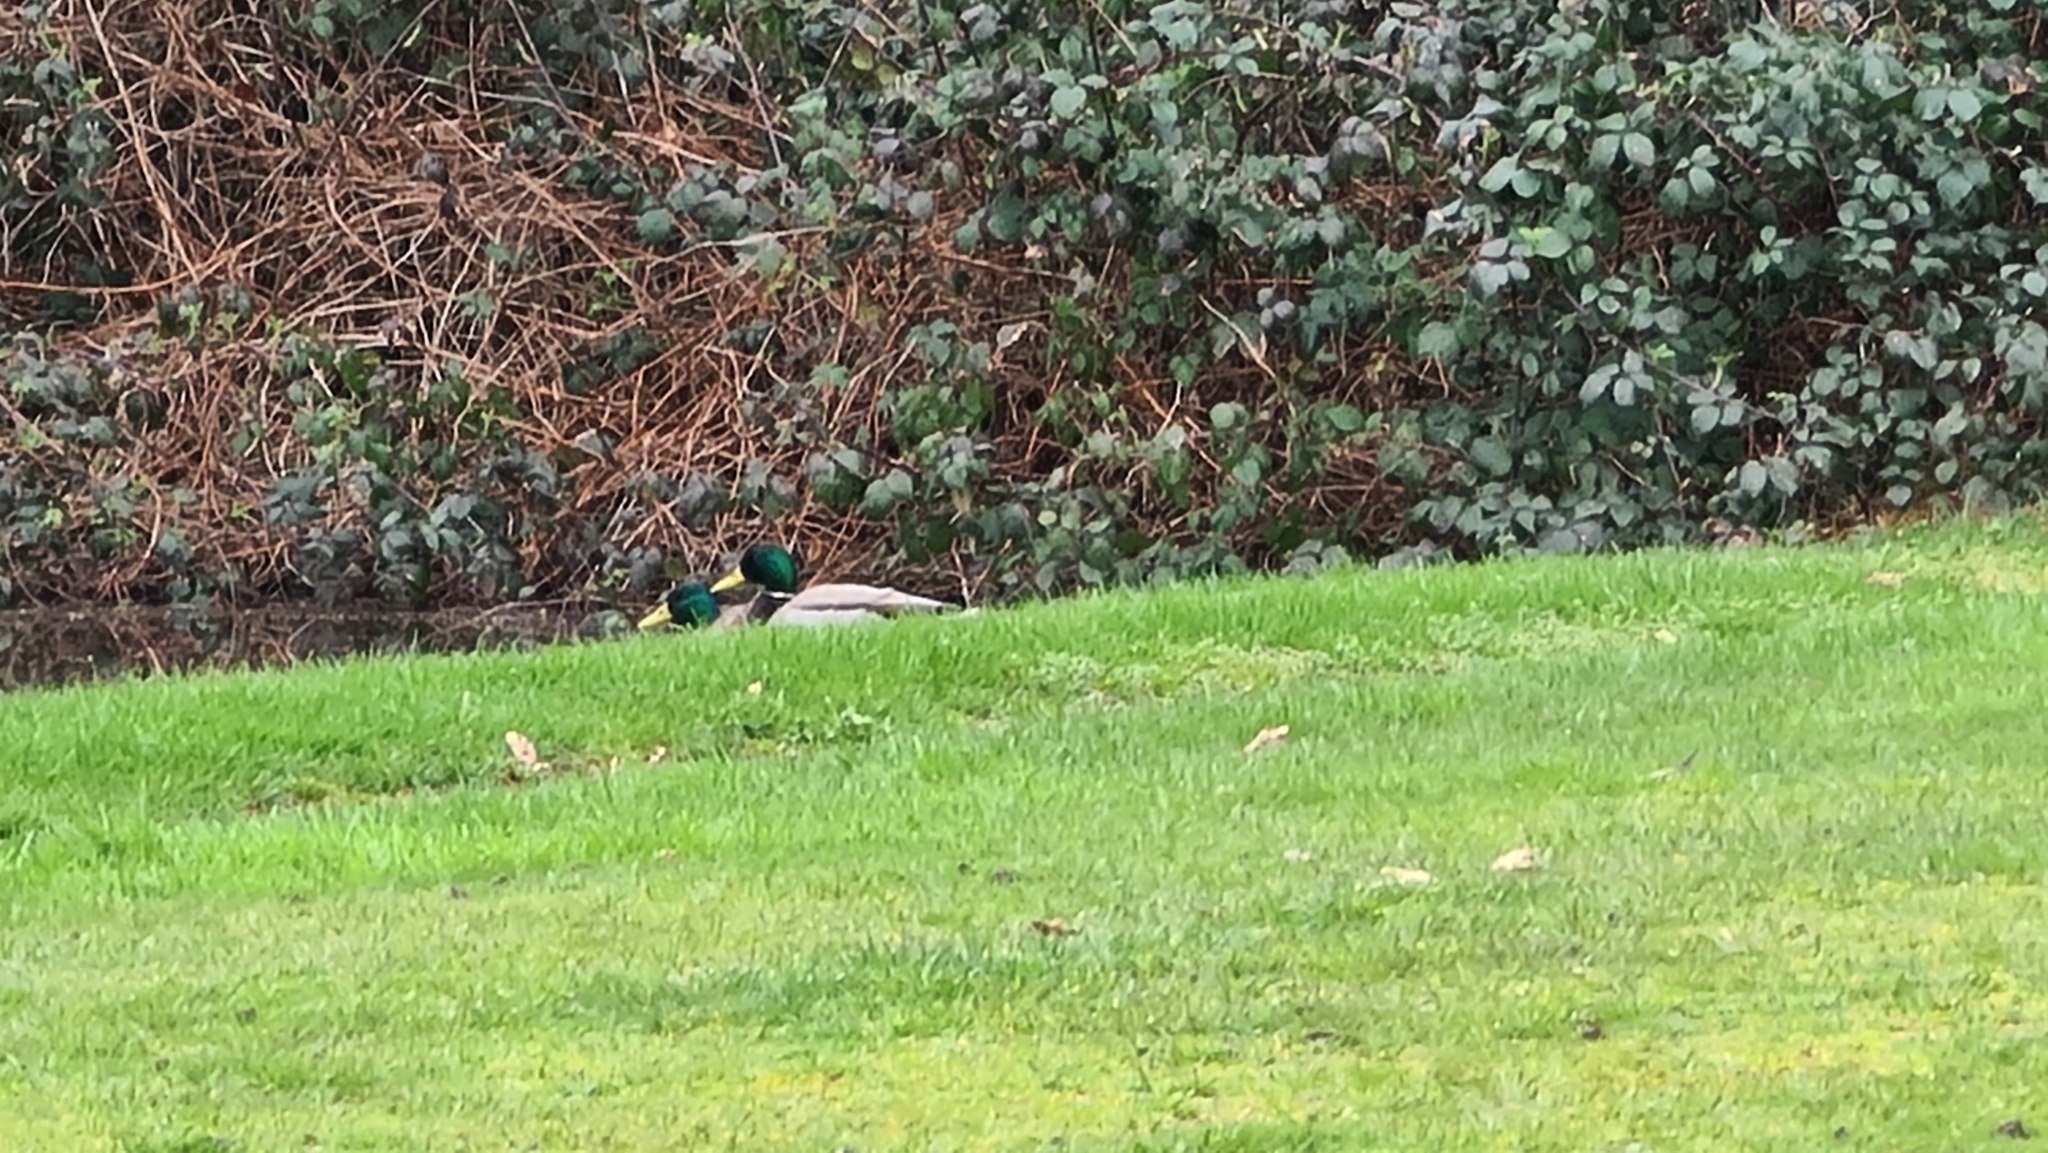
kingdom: Animalia
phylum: Chordata
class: Aves
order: Anseriformes
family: Anatidae
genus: Anas
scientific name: Anas platyrhynchos
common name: Mallard
